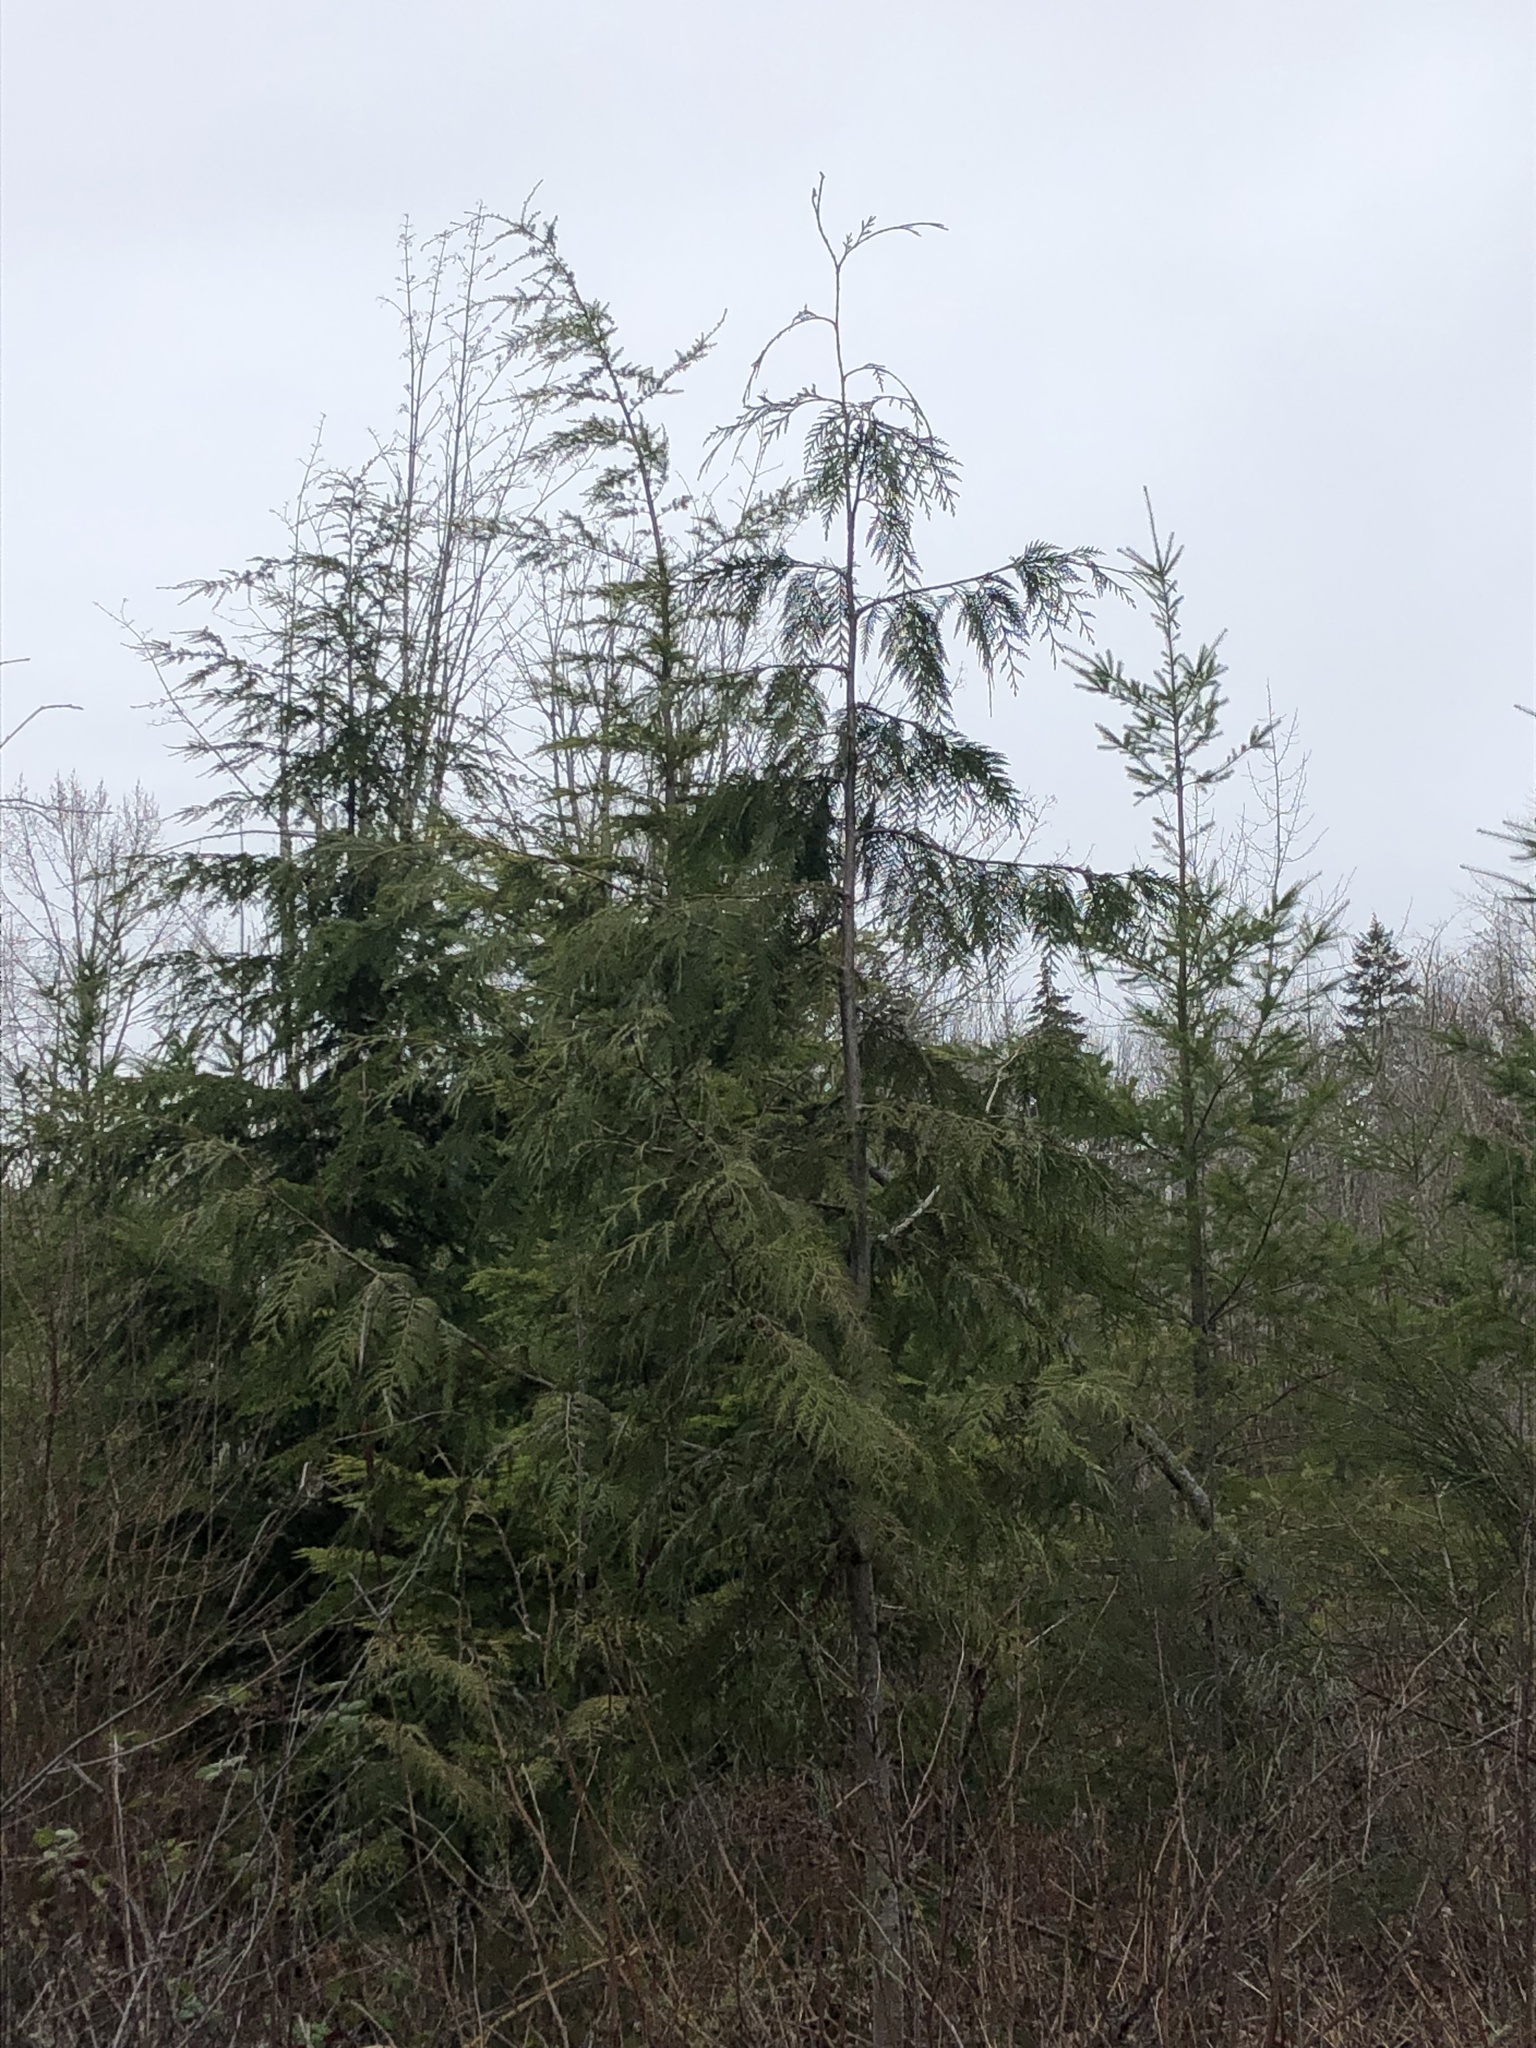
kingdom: Plantae
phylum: Tracheophyta
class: Pinopsida
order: Pinales
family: Pinaceae
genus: Pseudotsuga
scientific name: Pseudotsuga menziesii
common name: Douglas fir
